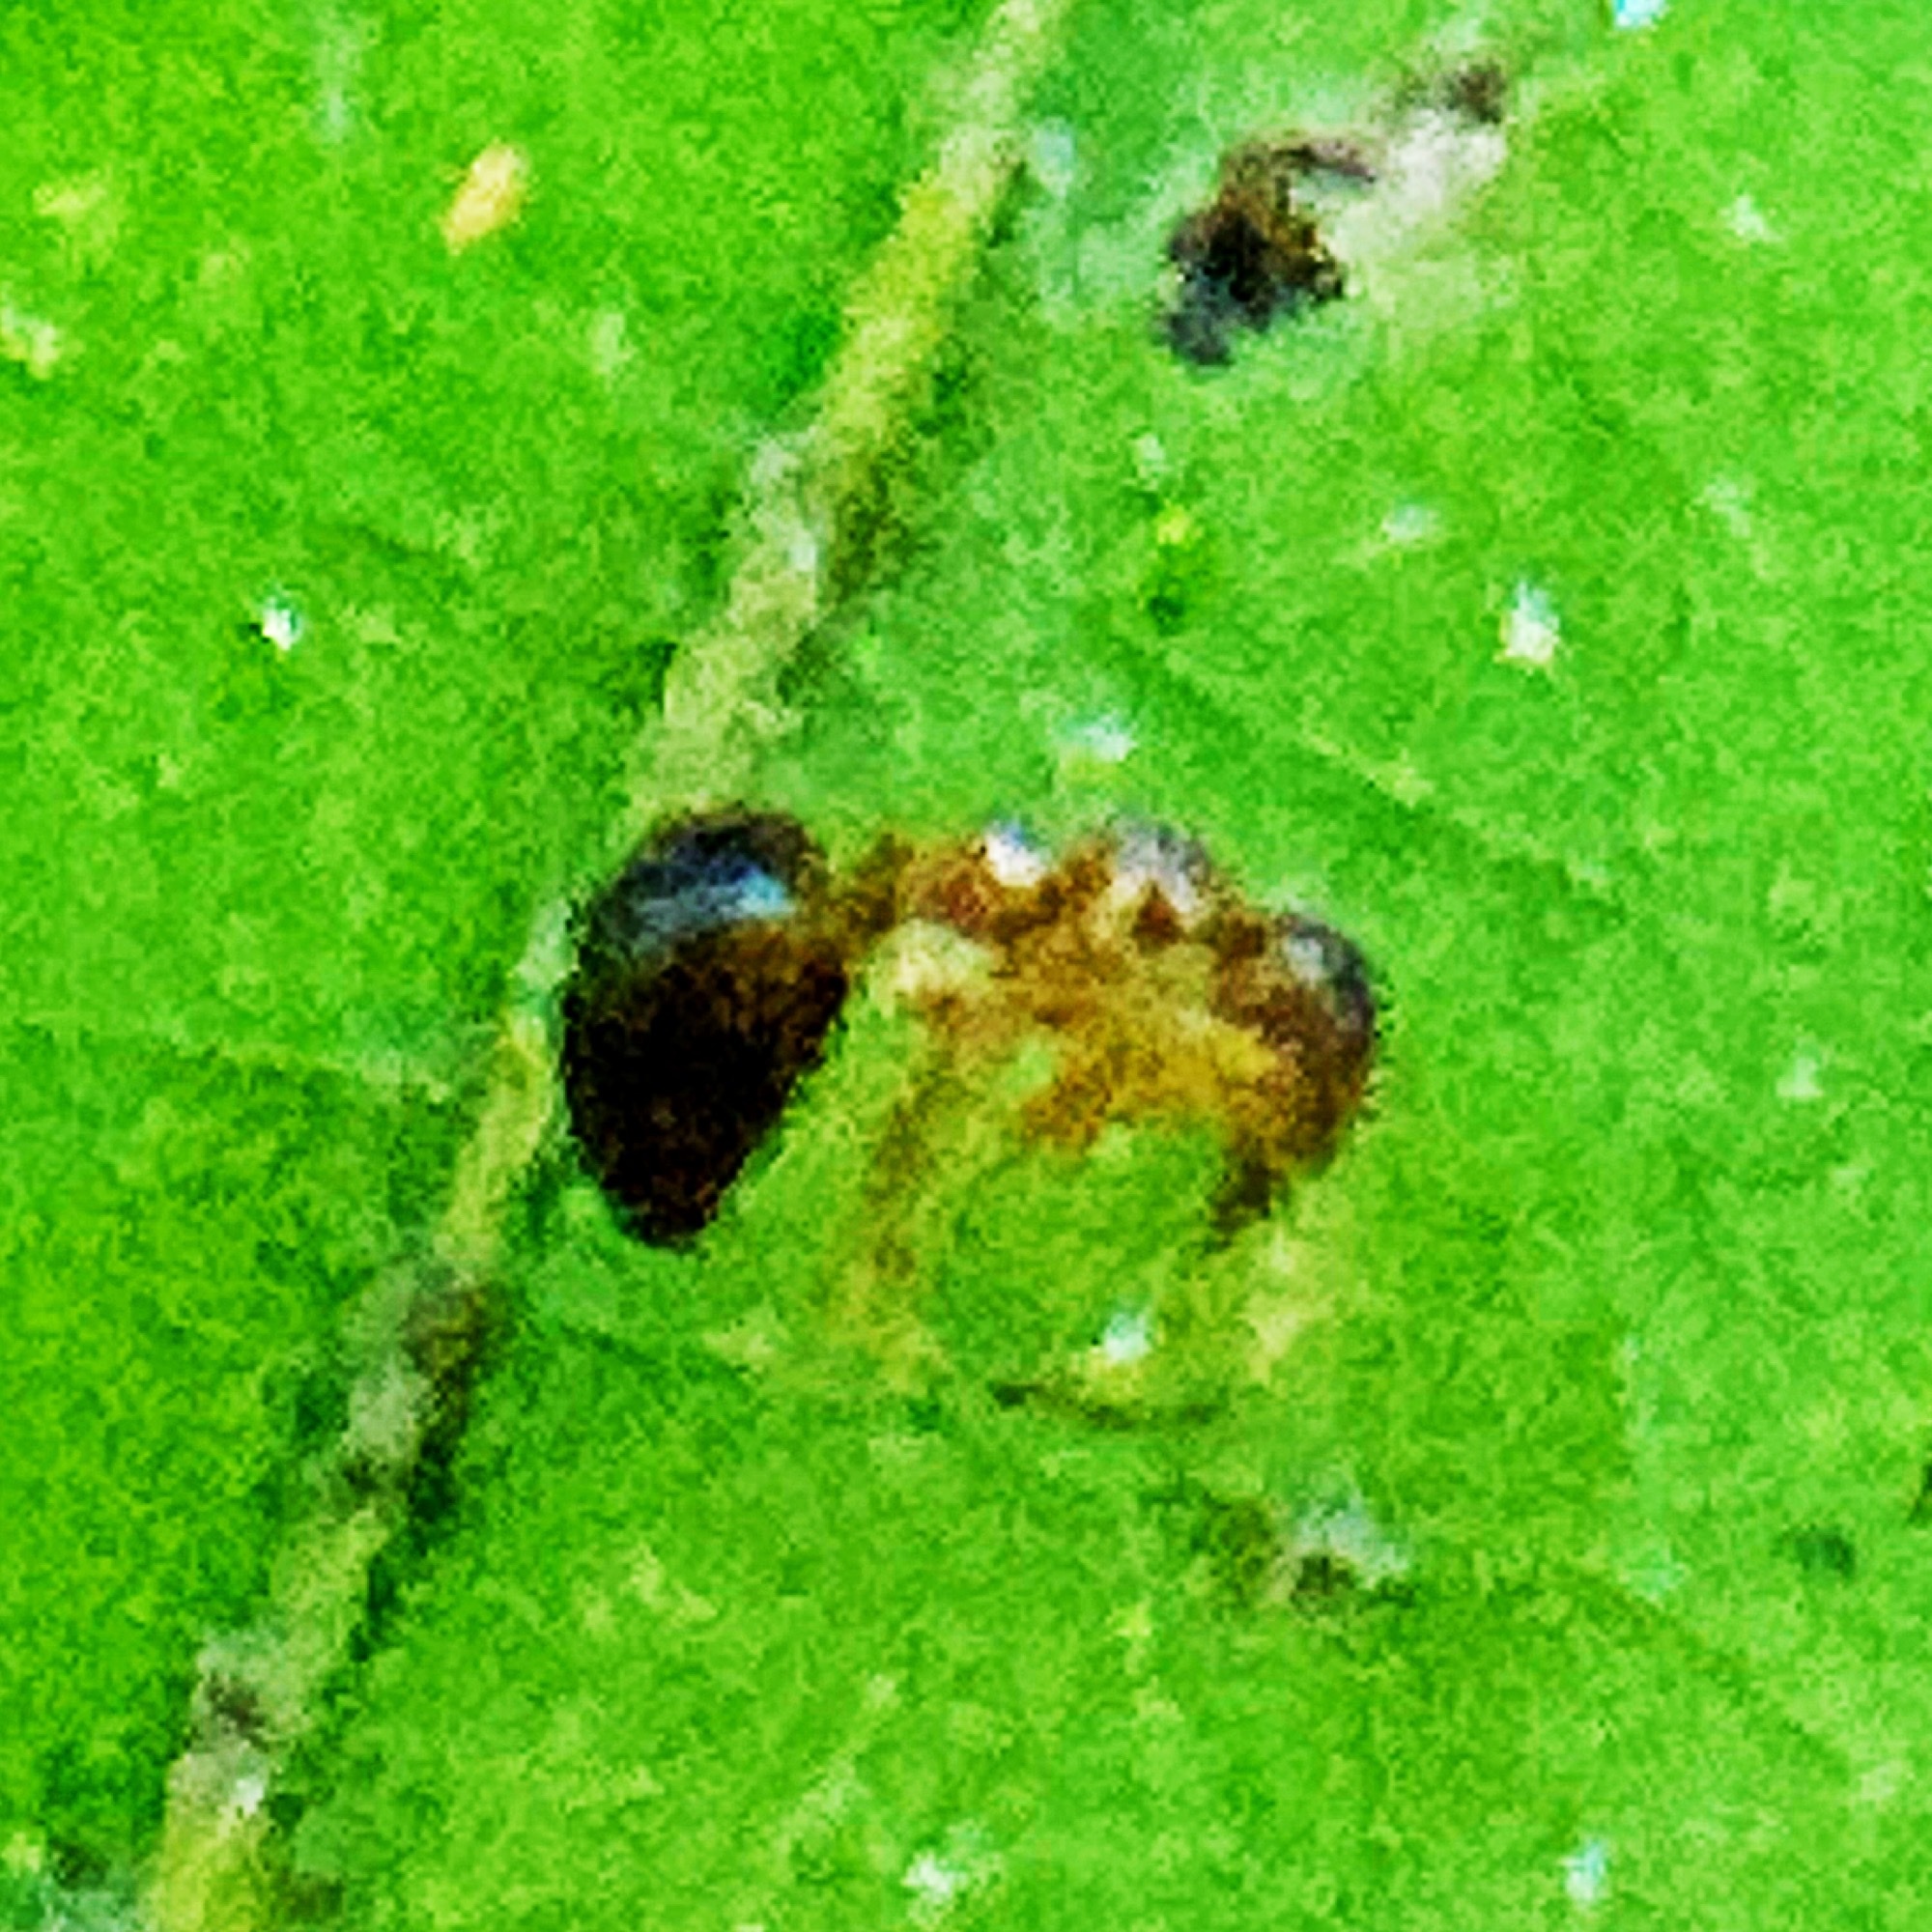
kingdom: Animalia
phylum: Arthropoda
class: Insecta
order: Hymenoptera
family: Formicidae
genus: Prenolepis
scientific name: Prenolepis imparis
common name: Small honey ant
